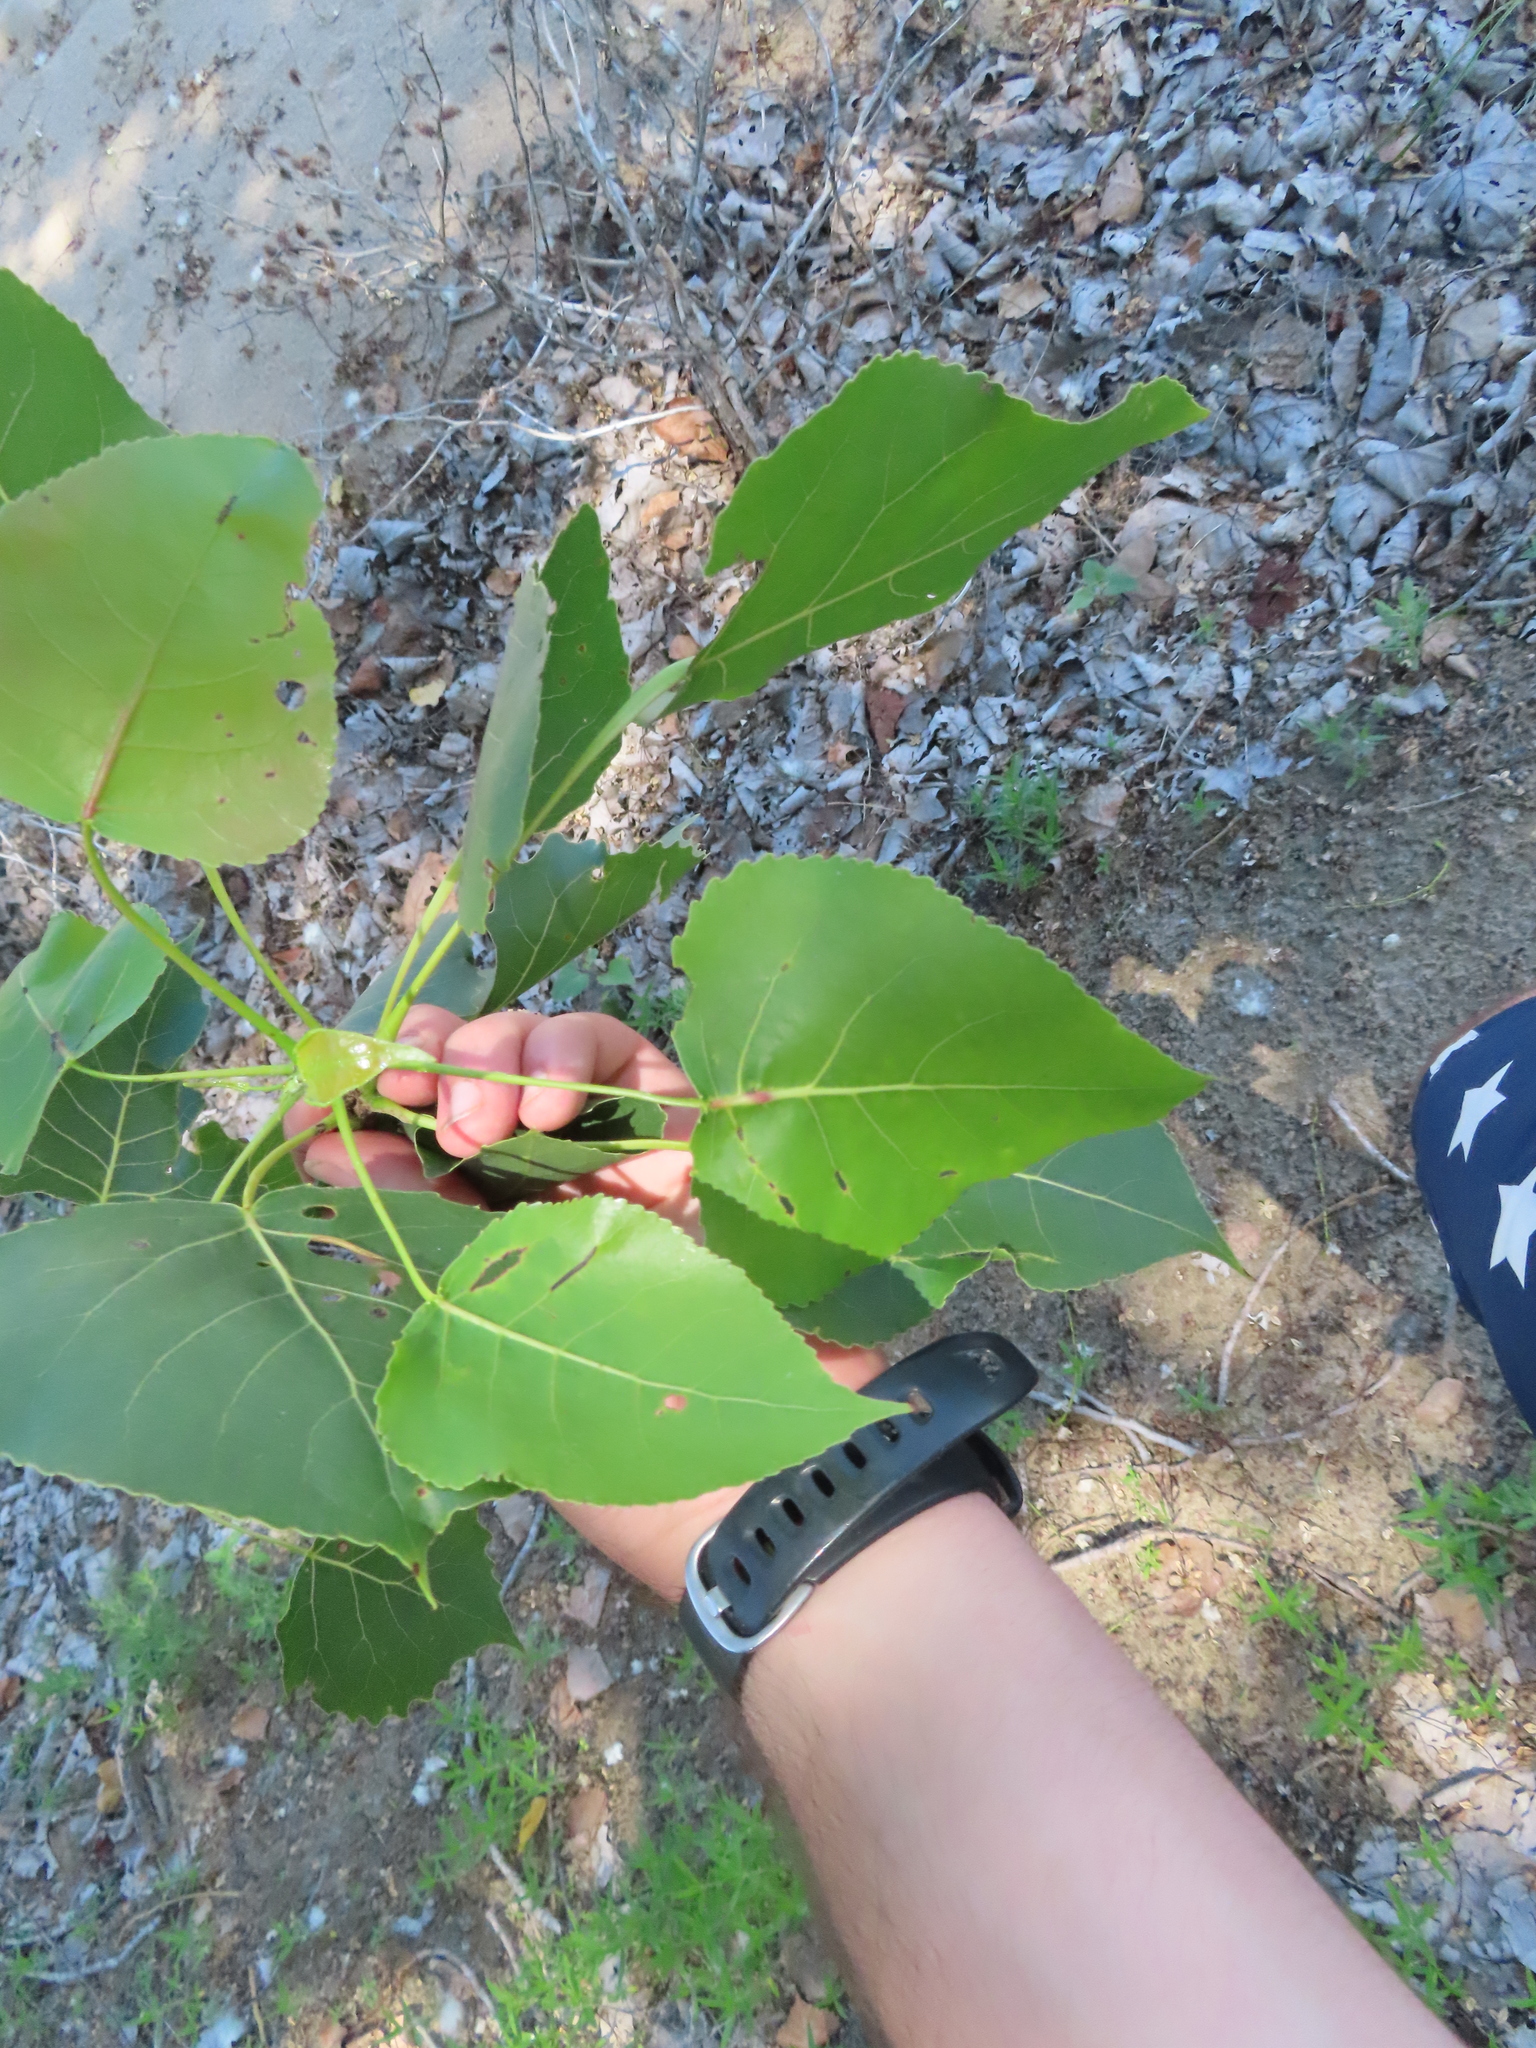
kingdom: Plantae
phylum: Tracheophyta
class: Magnoliopsida
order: Malpighiales
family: Salicaceae
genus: Populus
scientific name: Populus deltoides
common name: Eastern cottonwood
